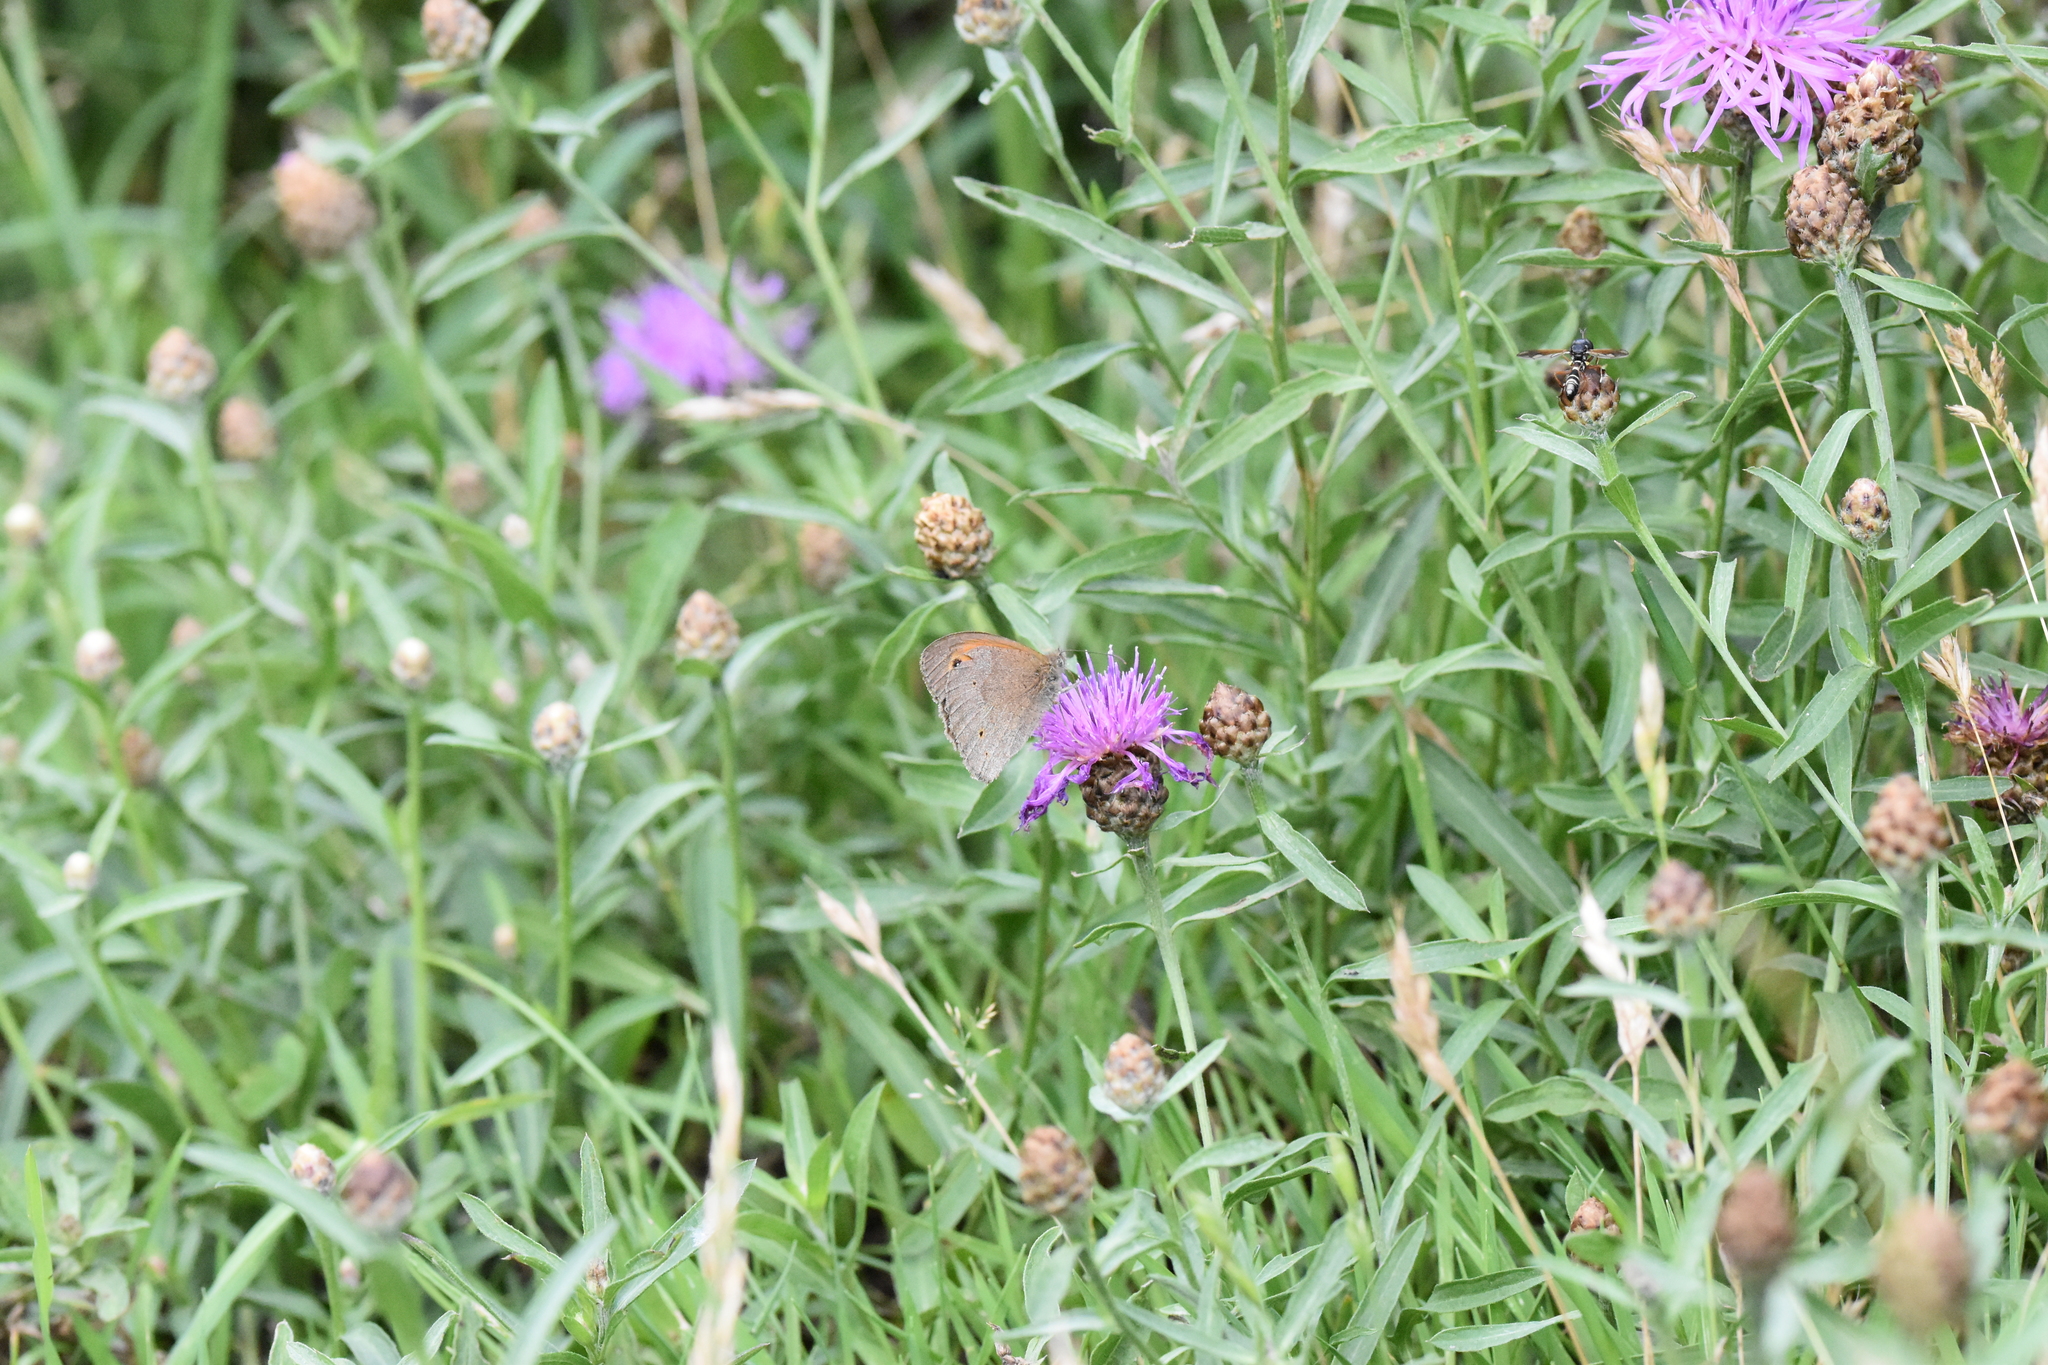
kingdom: Animalia
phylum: Arthropoda
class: Insecta
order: Lepidoptera
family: Nymphalidae
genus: Maniola
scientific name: Maniola jurtina
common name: Meadow brown
